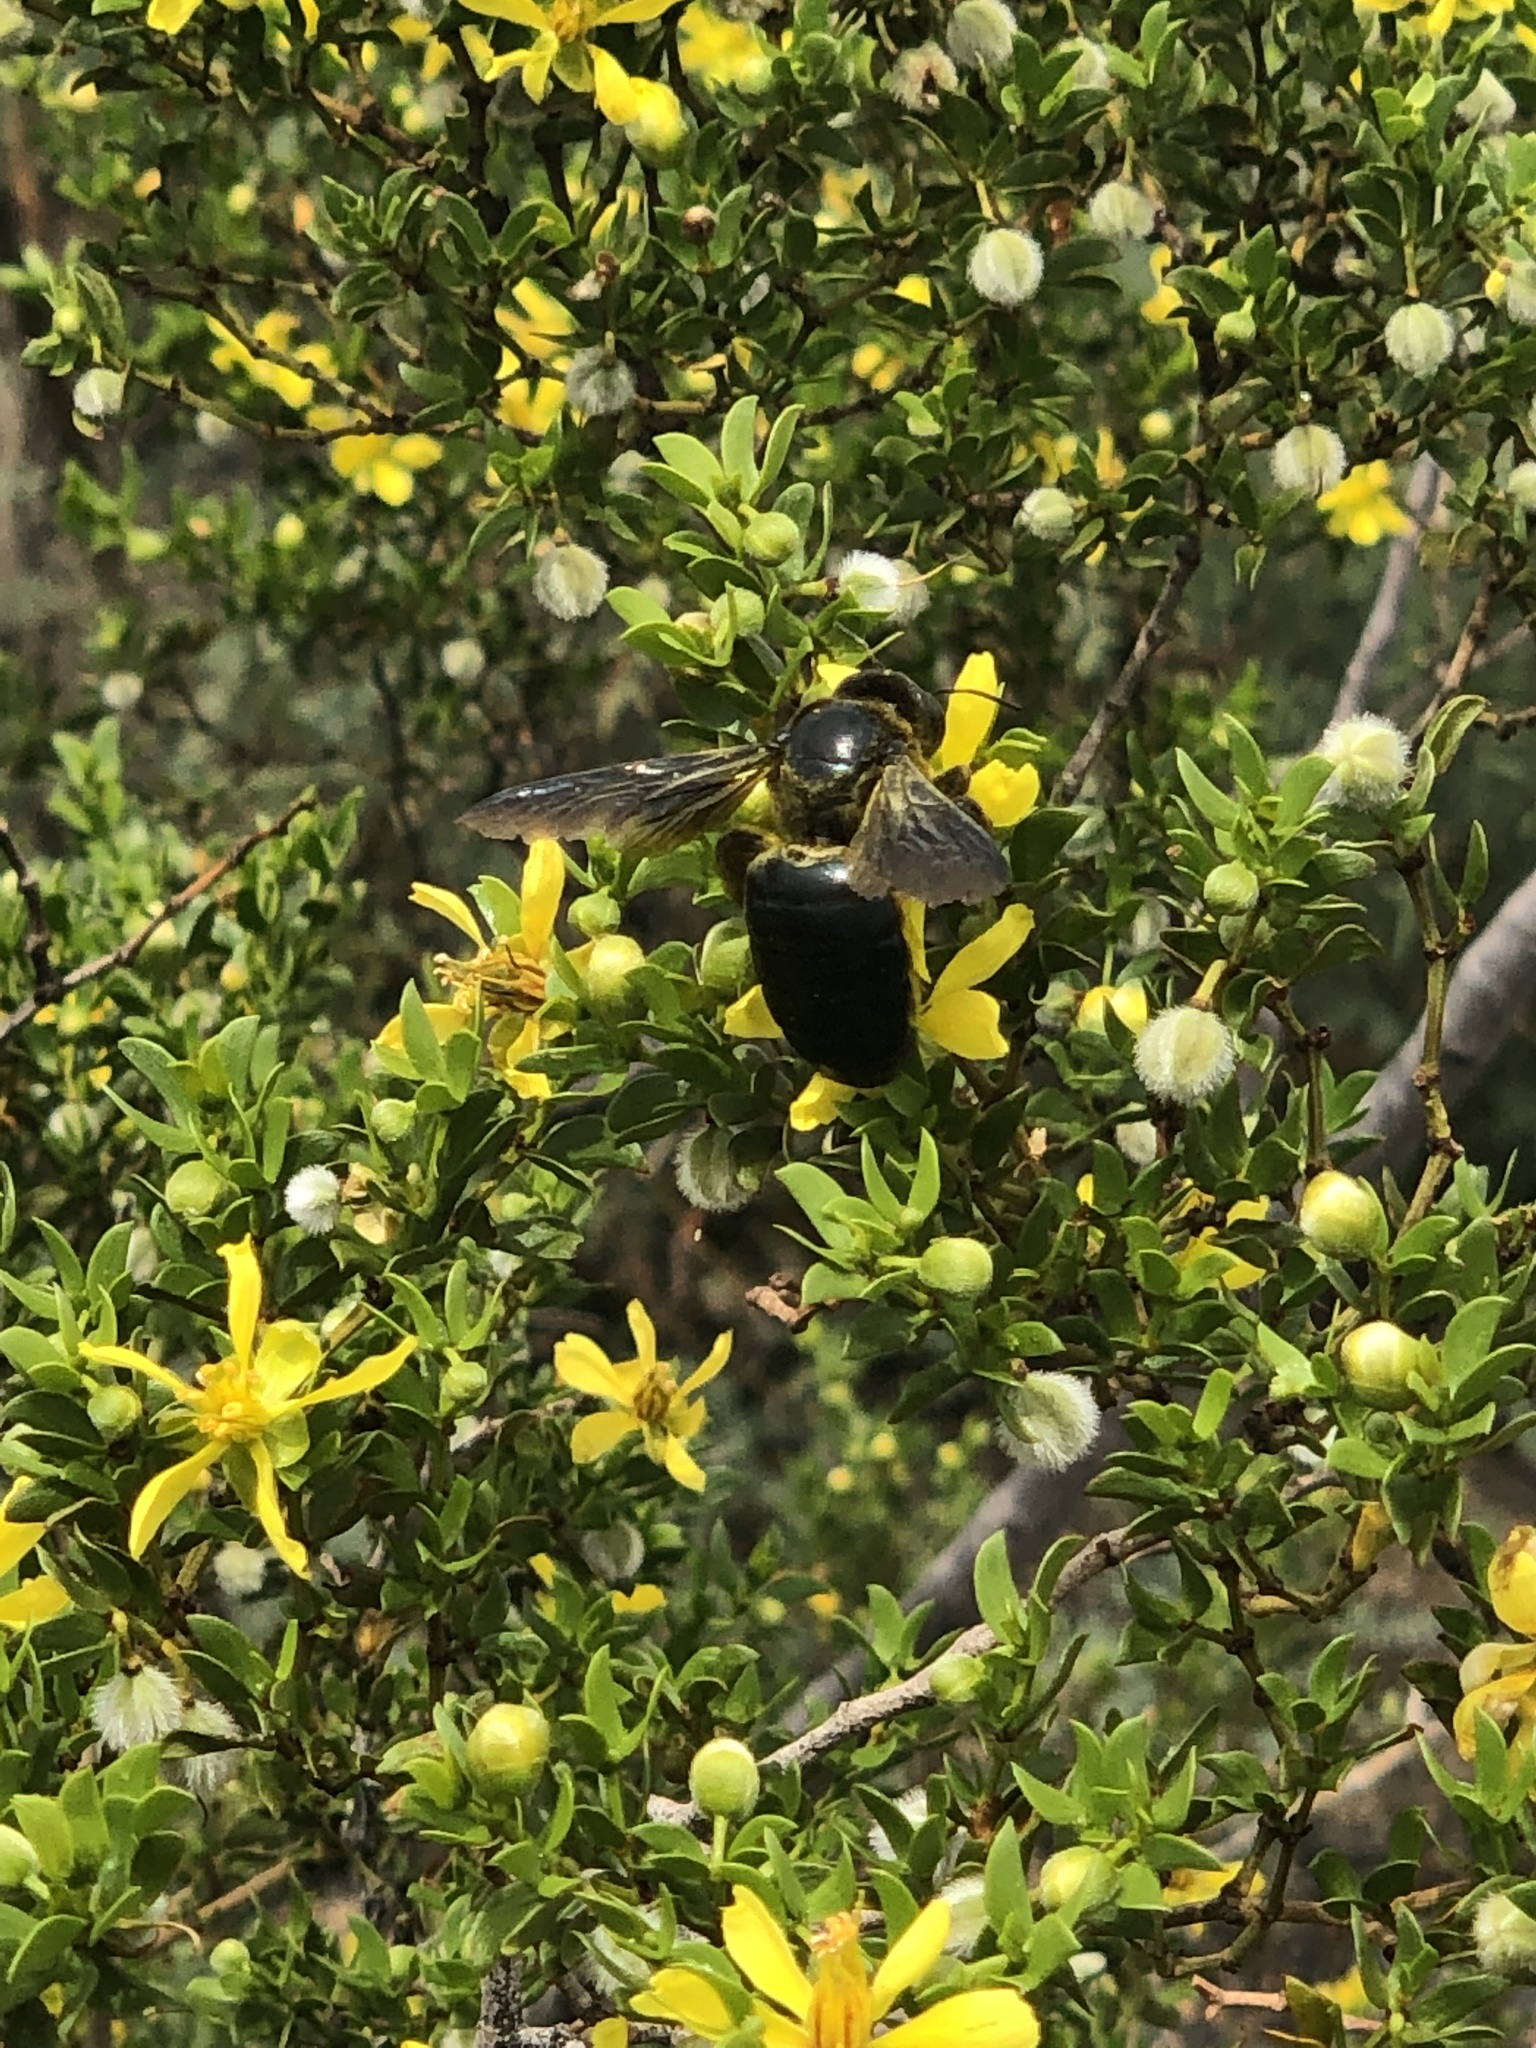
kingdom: Animalia
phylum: Arthropoda
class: Insecta
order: Hymenoptera
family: Apidae
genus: Xylocopa
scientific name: Xylocopa californica
